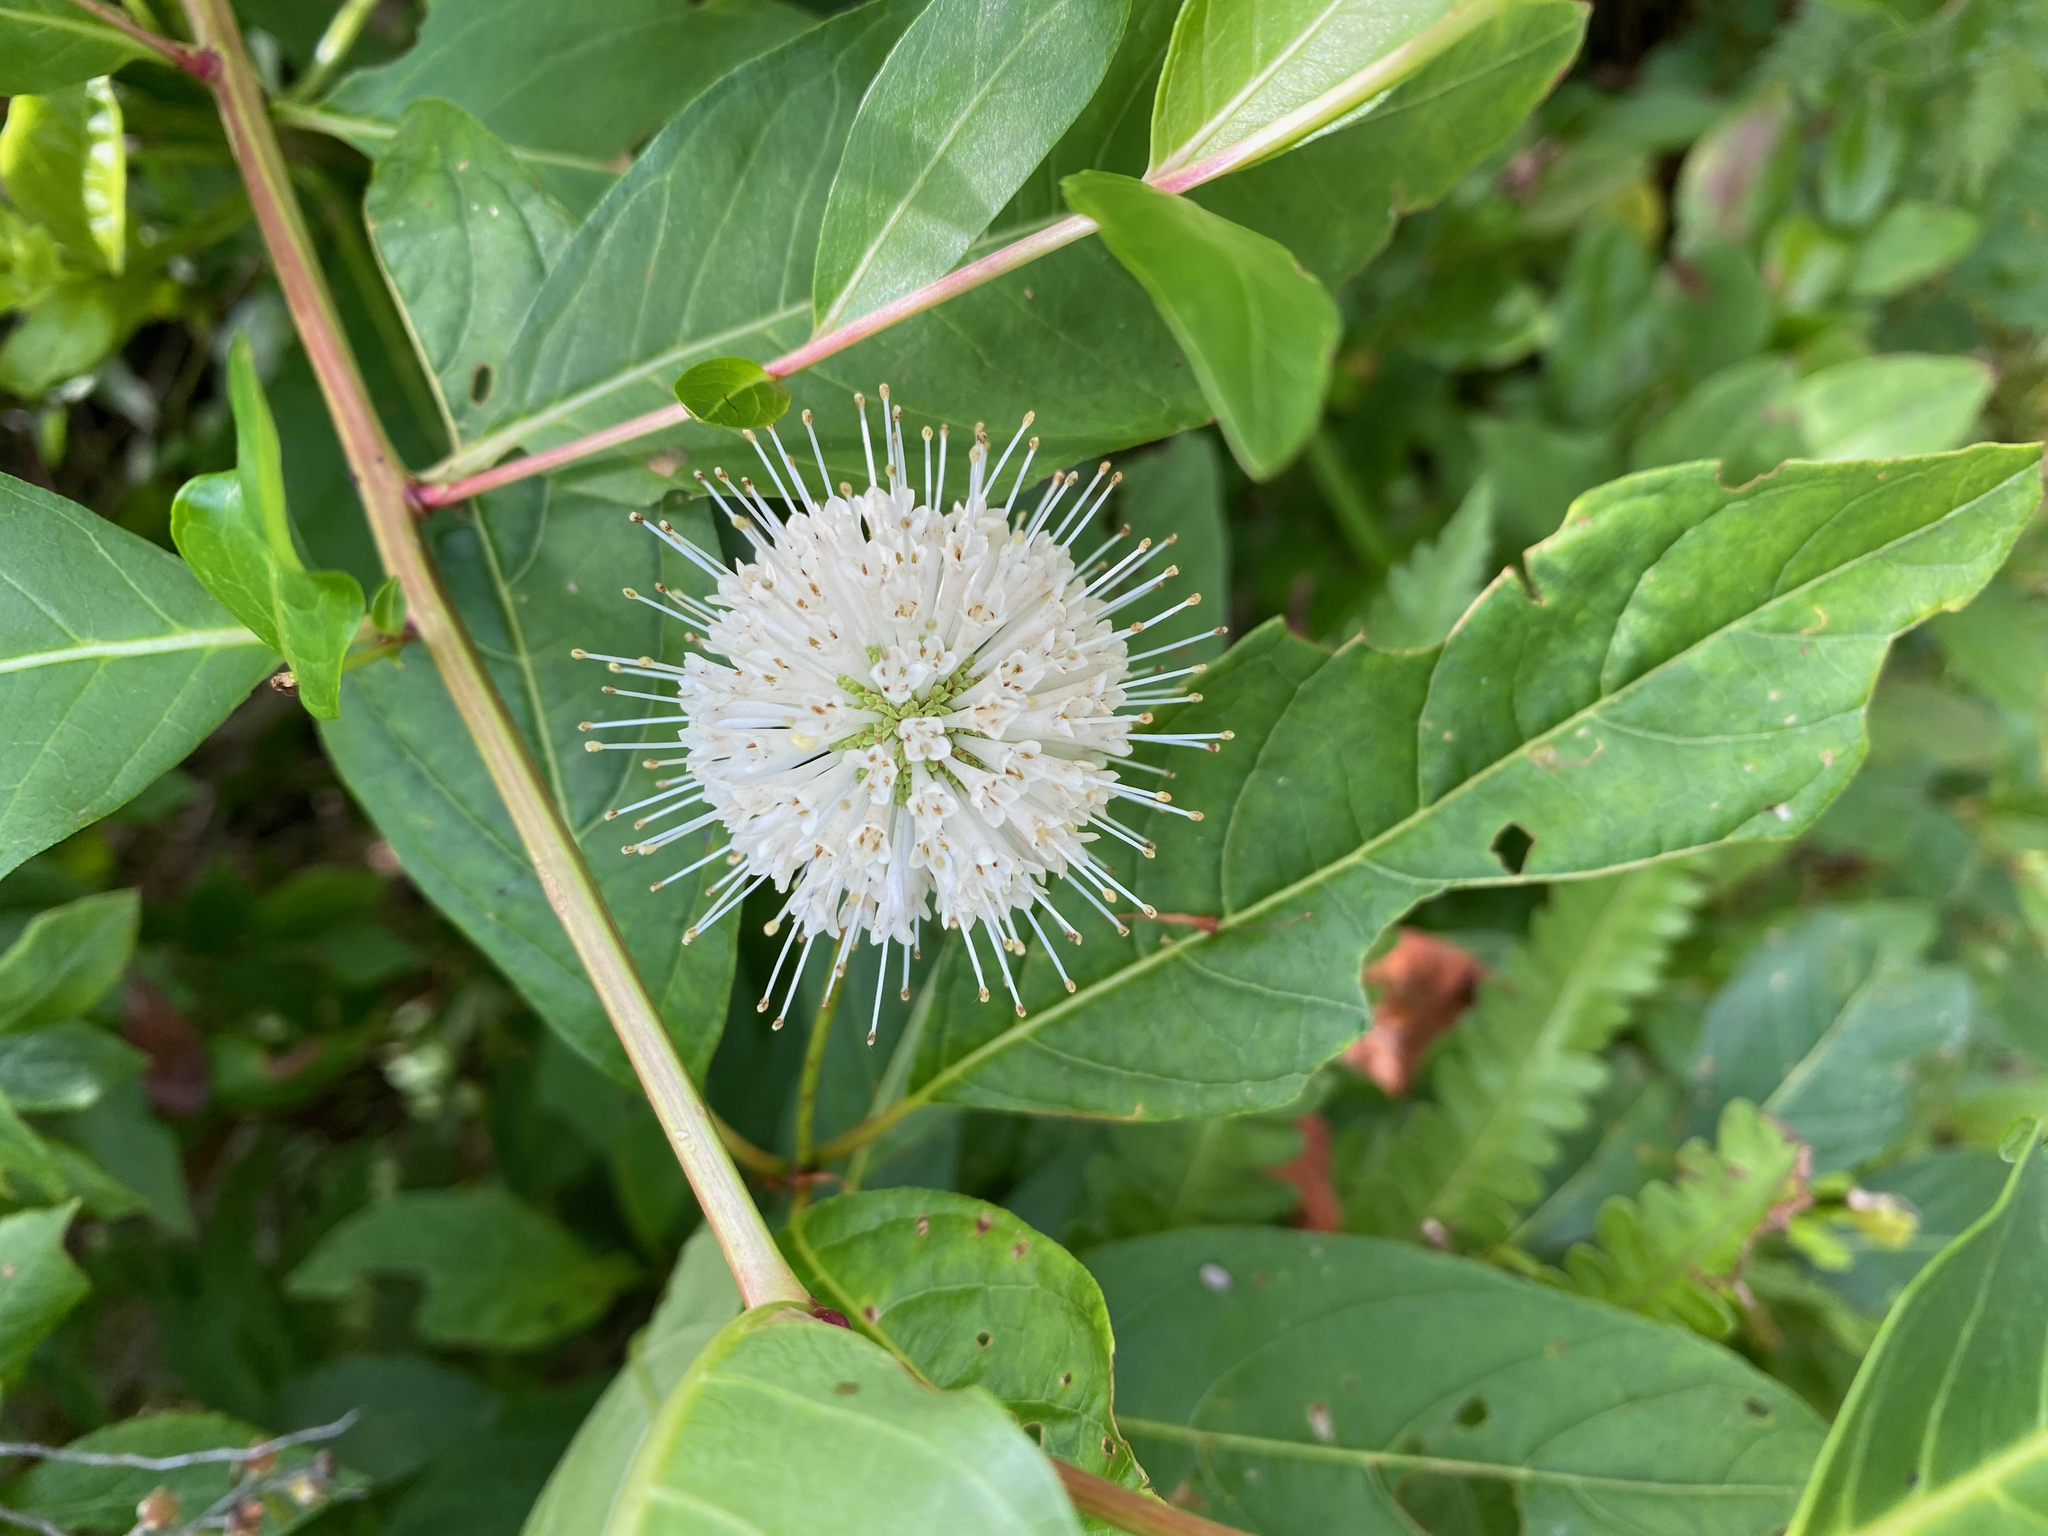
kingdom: Plantae
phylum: Tracheophyta
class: Magnoliopsida
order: Gentianales
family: Rubiaceae
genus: Cephalanthus
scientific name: Cephalanthus occidentalis
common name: Button-willow
